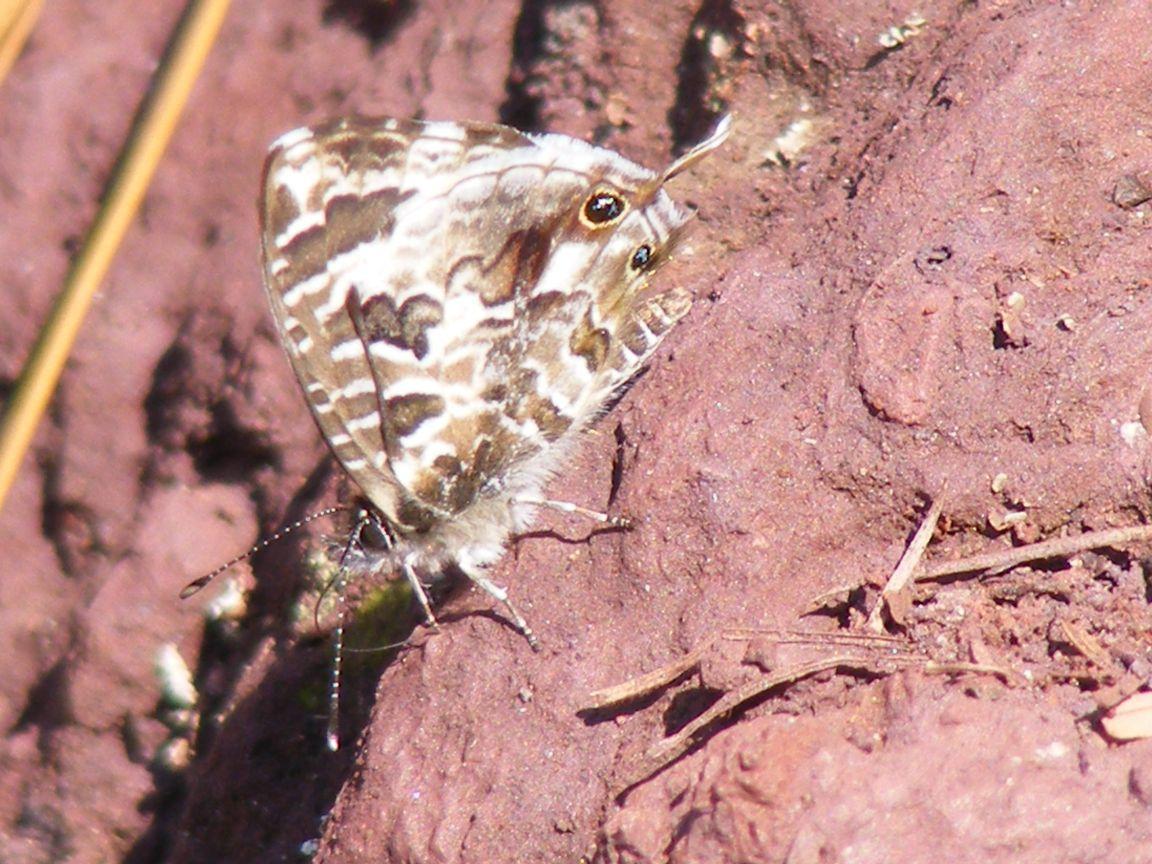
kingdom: Animalia
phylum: Arthropoda
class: Insecta
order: Lepidoptera
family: Lycaenidae
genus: Cacyreus
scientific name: Cacyreus lingeus
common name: Bush bronze
